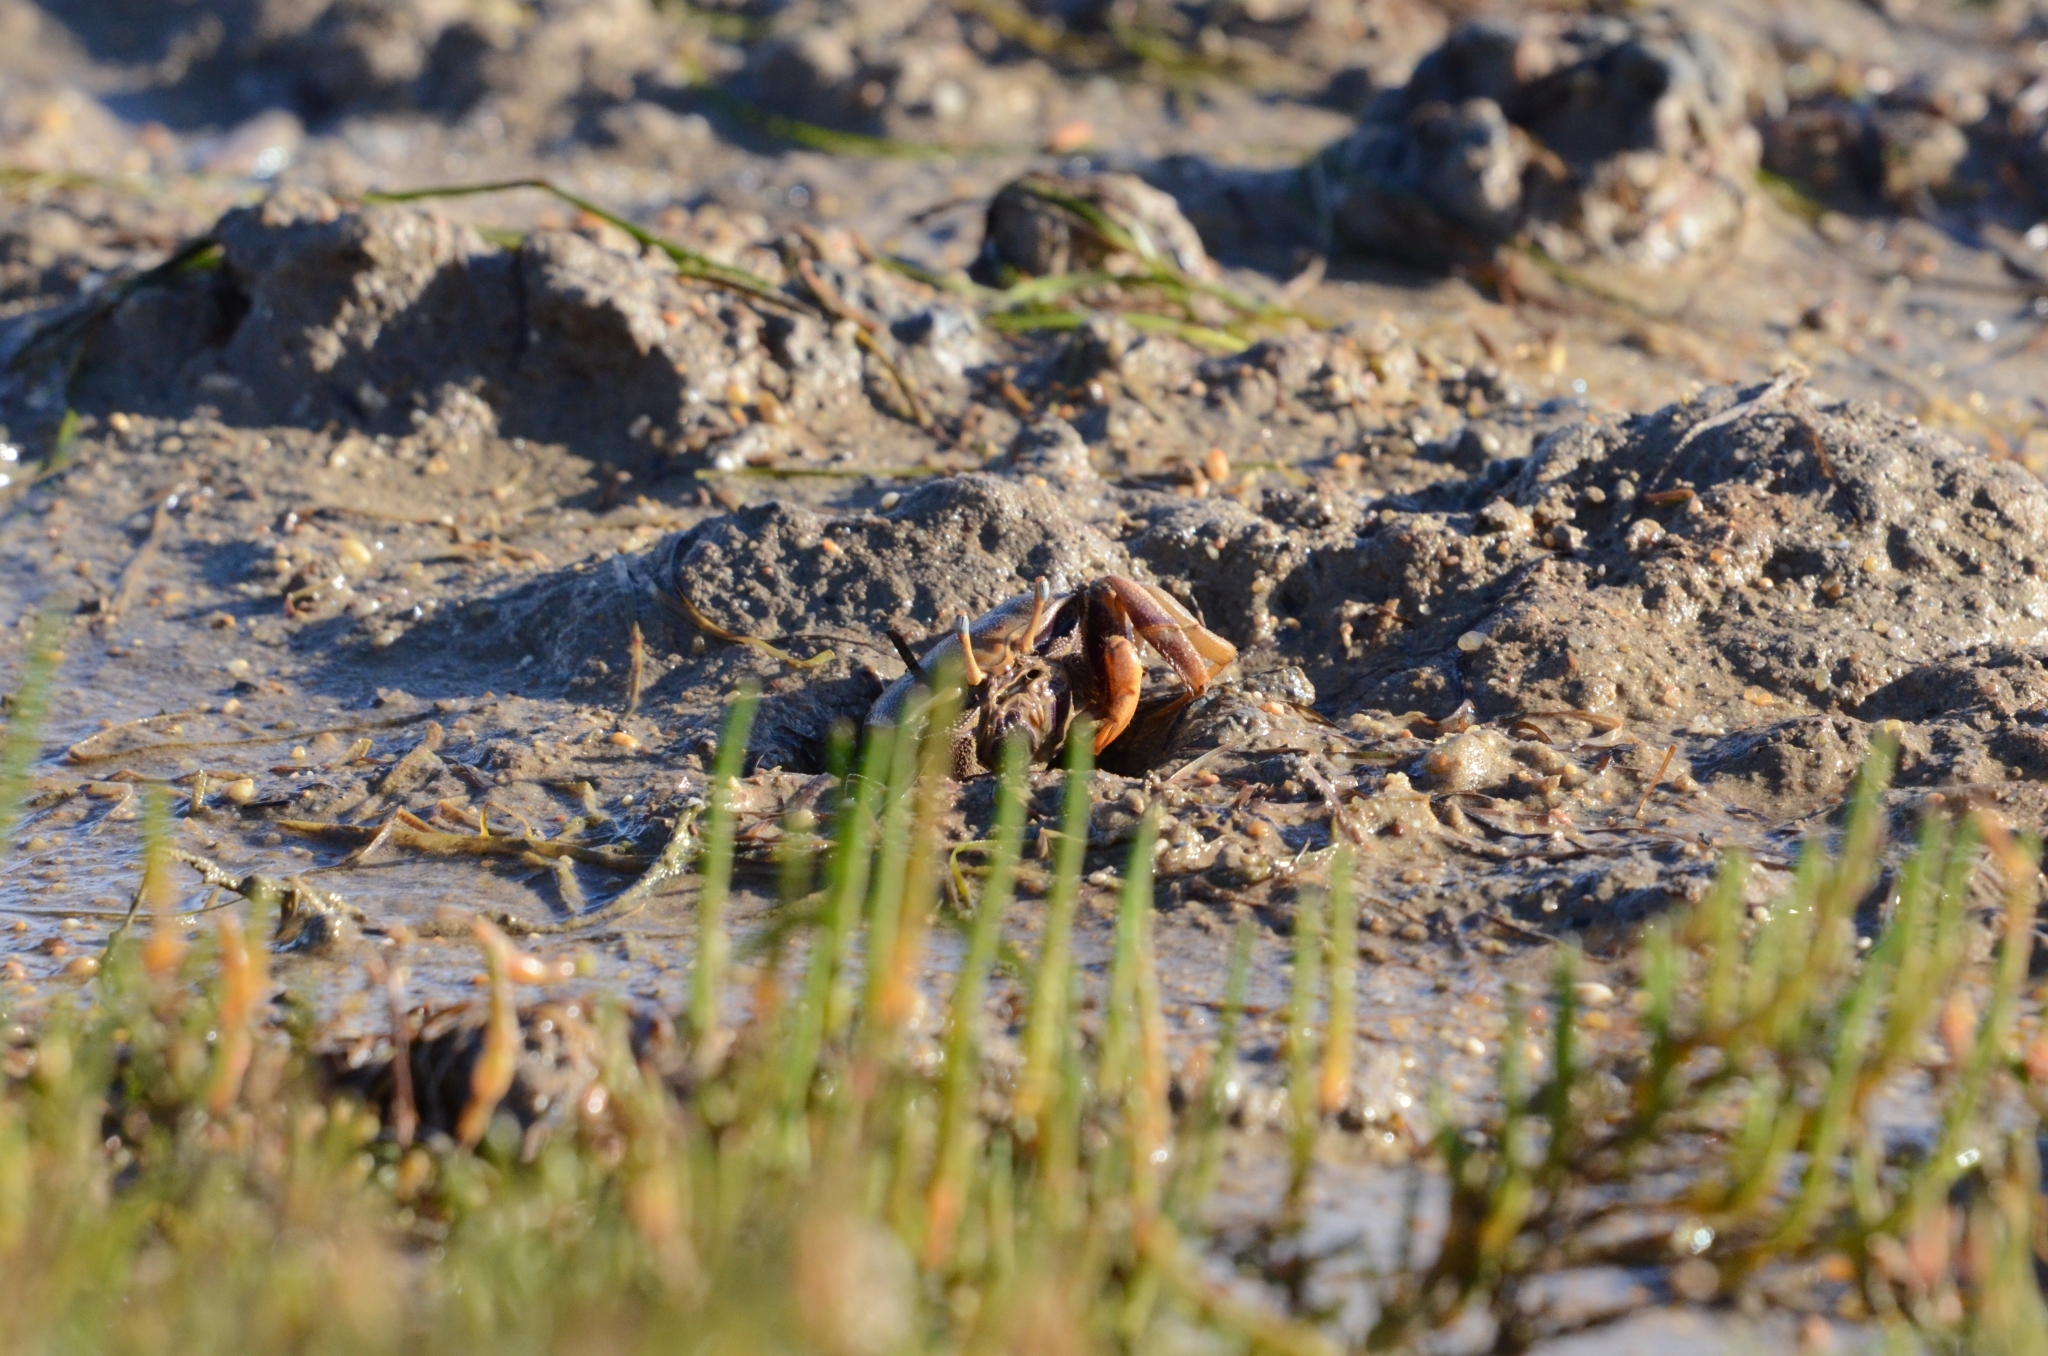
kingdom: Animalia
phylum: Arthropoda
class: Malacostraca
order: Decapoda
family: Ocypodidae
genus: Afruca
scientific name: Afruca tangeri
